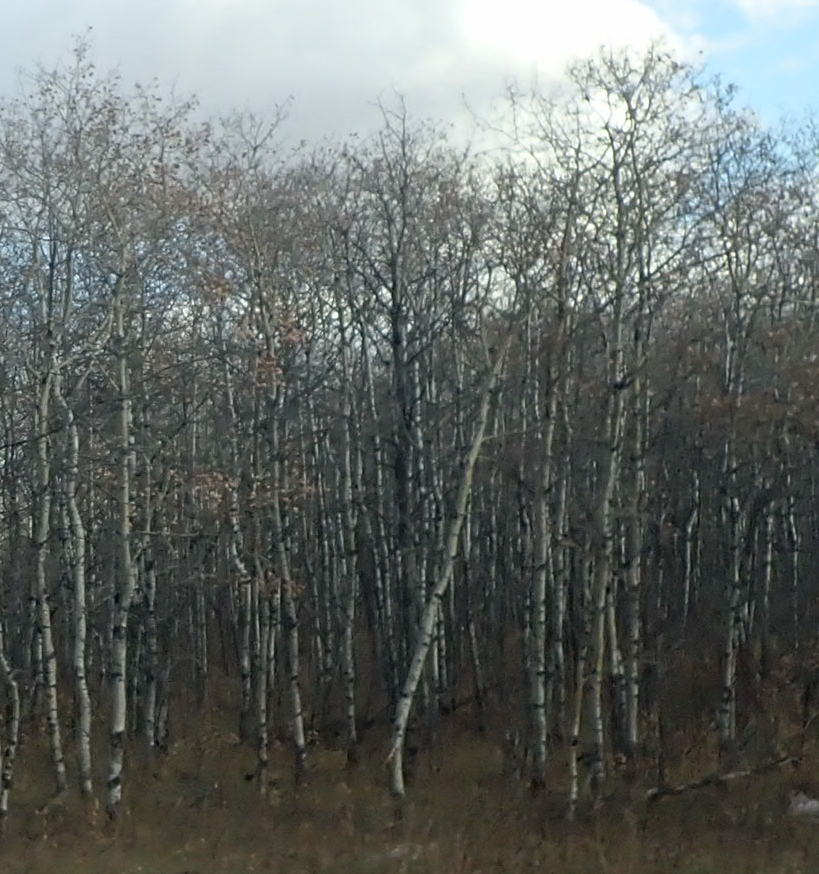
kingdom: Plantae
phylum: Tracheophyta
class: Magnoliopsida
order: Malpighiales
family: Salicaceae
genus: Populus
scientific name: Populus tremuloides
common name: Quaking aspen
